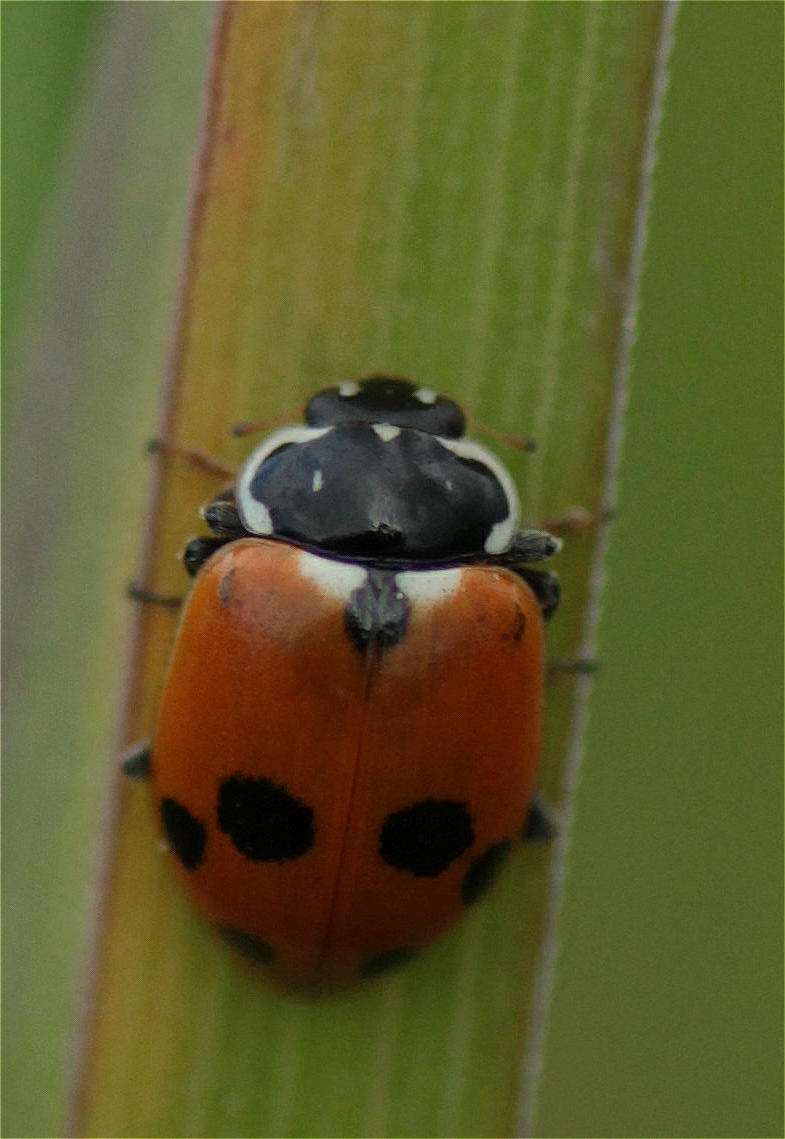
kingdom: Animalia
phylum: Arthropoda
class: Insecta
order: Coleoptera
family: Coccinellidae
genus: Hippodamia
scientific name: Hippodamia variegata
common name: Ladybird beetle
